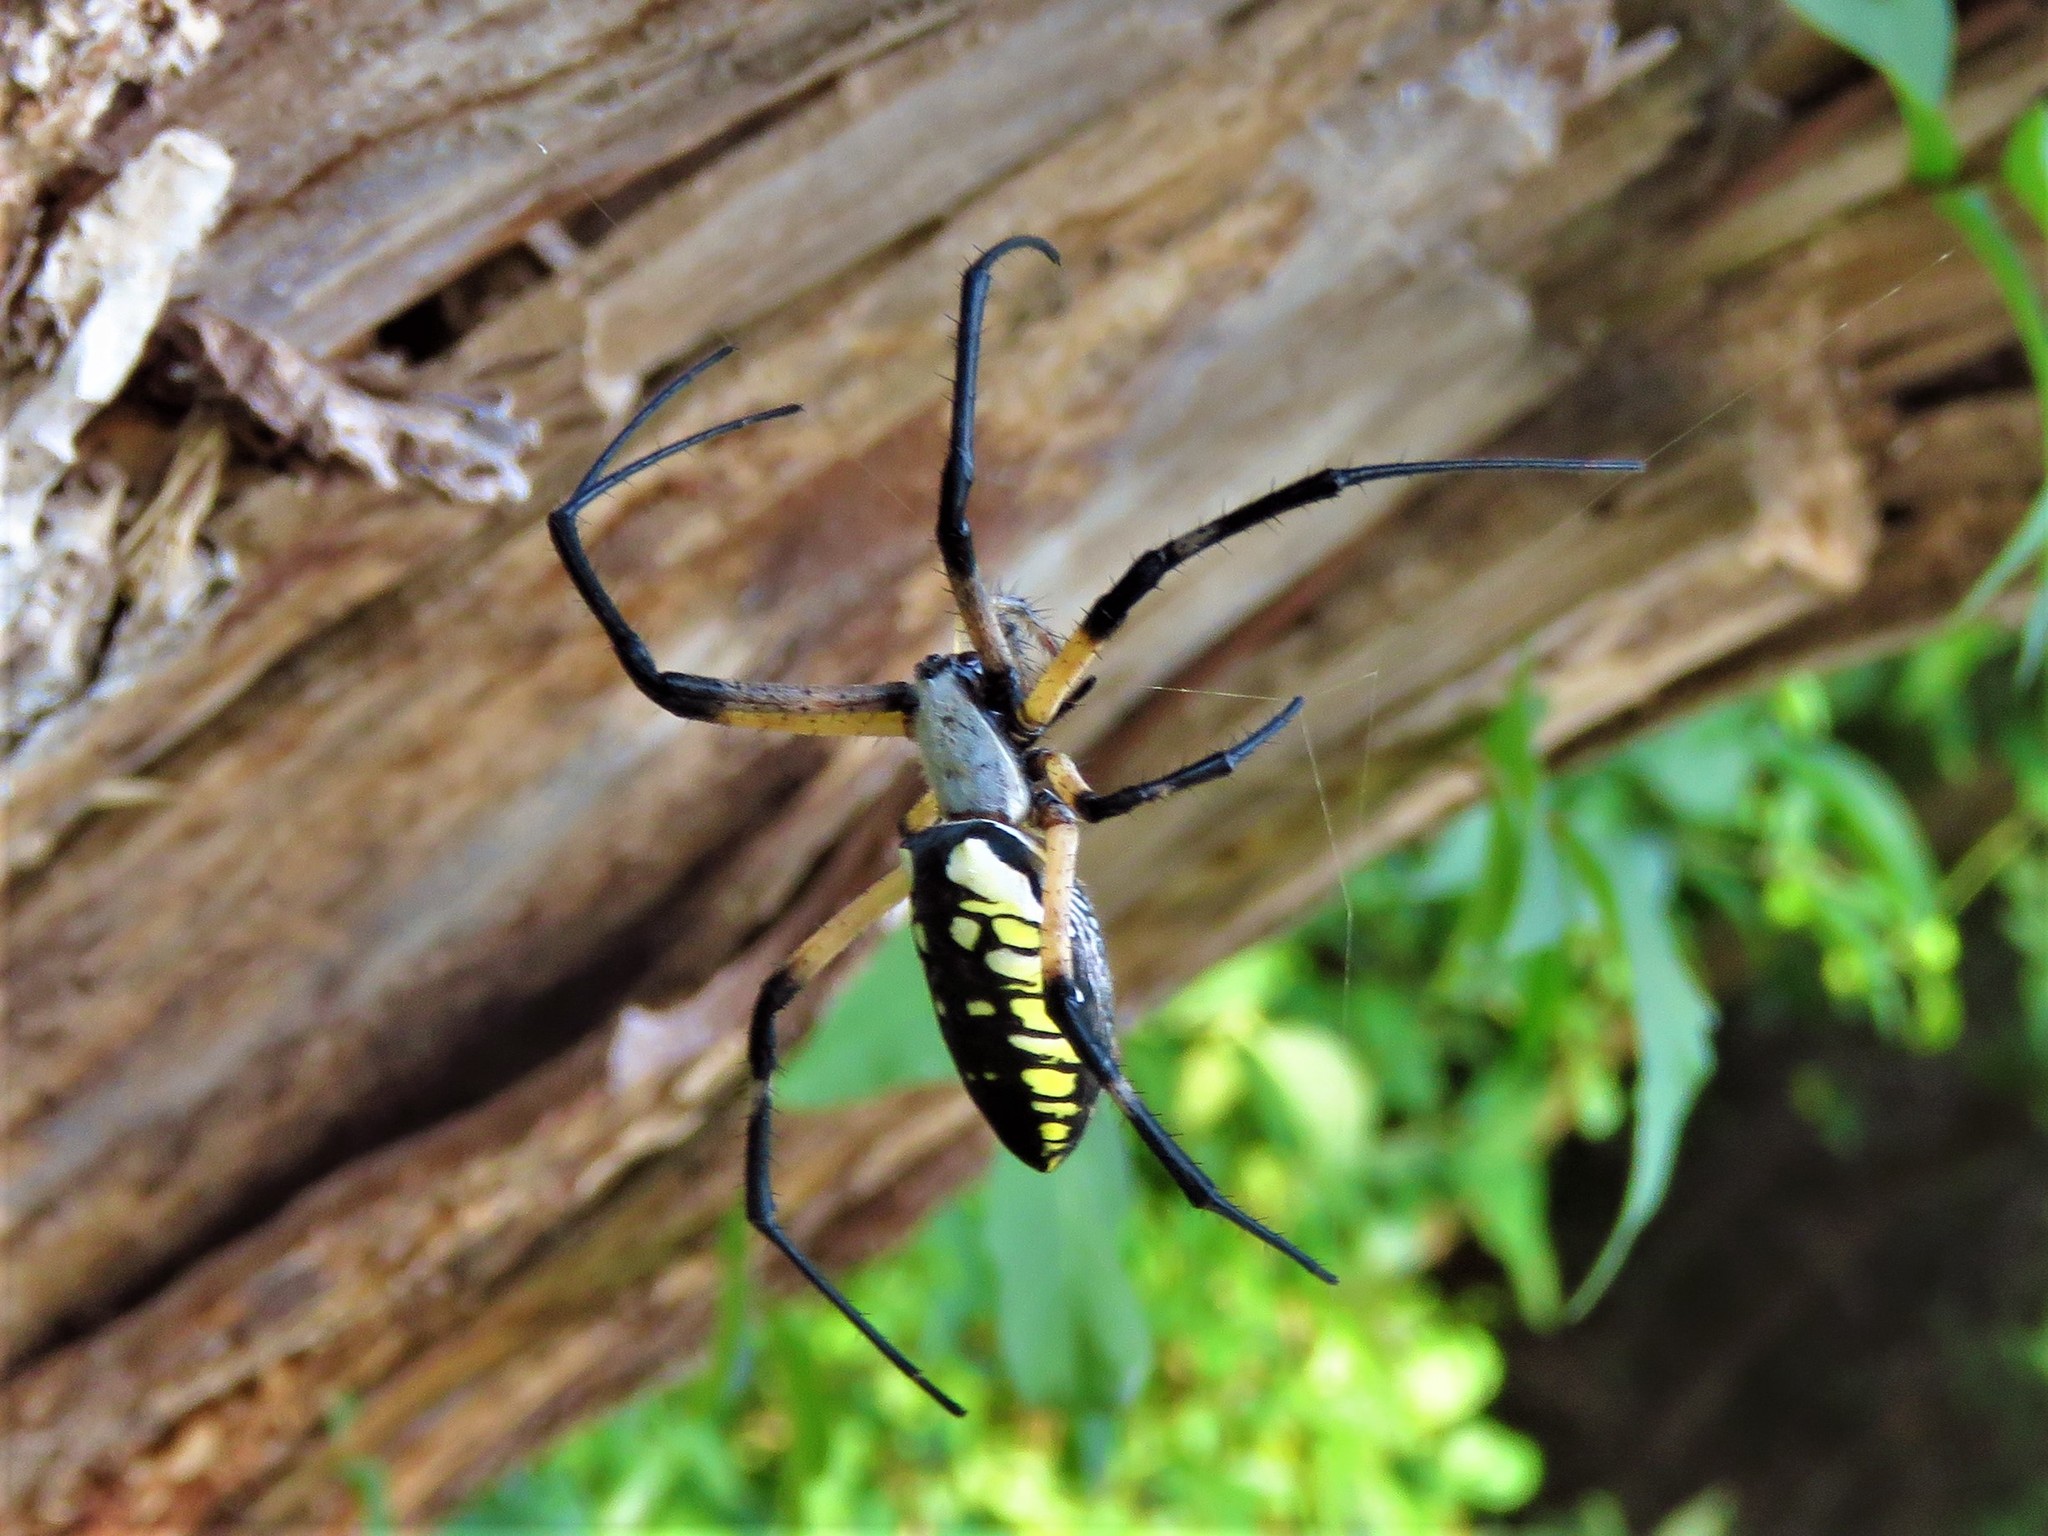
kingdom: Animalia
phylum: Arthropoda
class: Arachnida
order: Araneae
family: Araneidae
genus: Argiope
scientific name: Argiope aurantia
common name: Orb weavers
